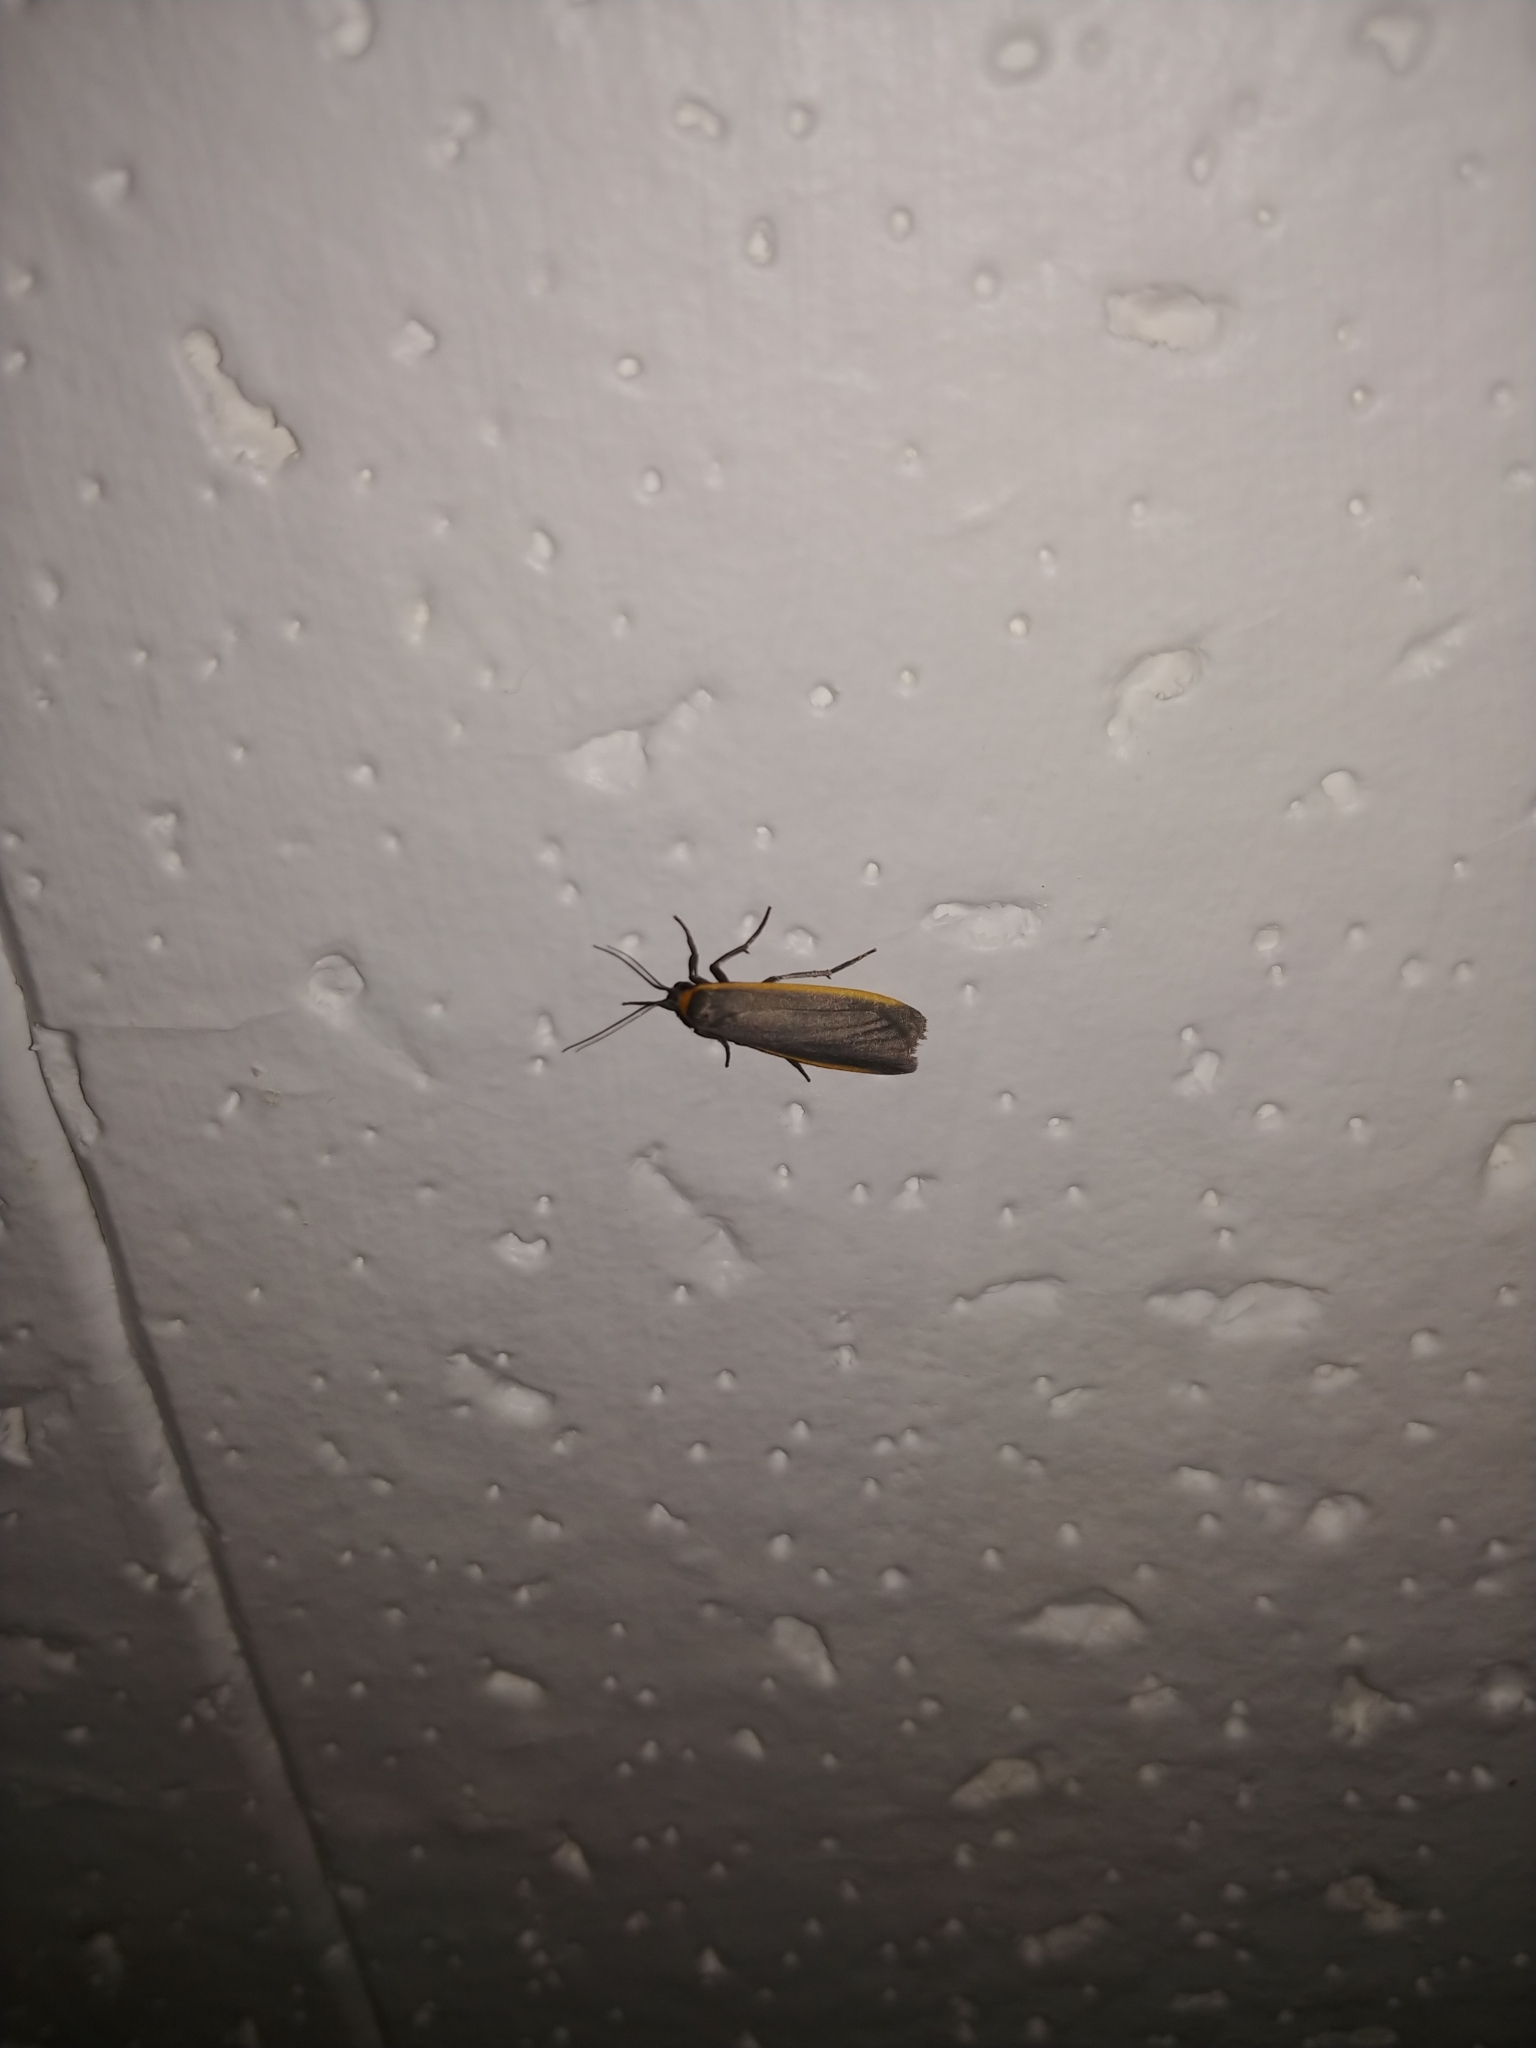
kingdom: Animalia
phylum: Arthropoda
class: Insecta
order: Lepidoptera
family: Erebidae
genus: Manulea
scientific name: Manulea bicolor
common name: Bicolored moth
